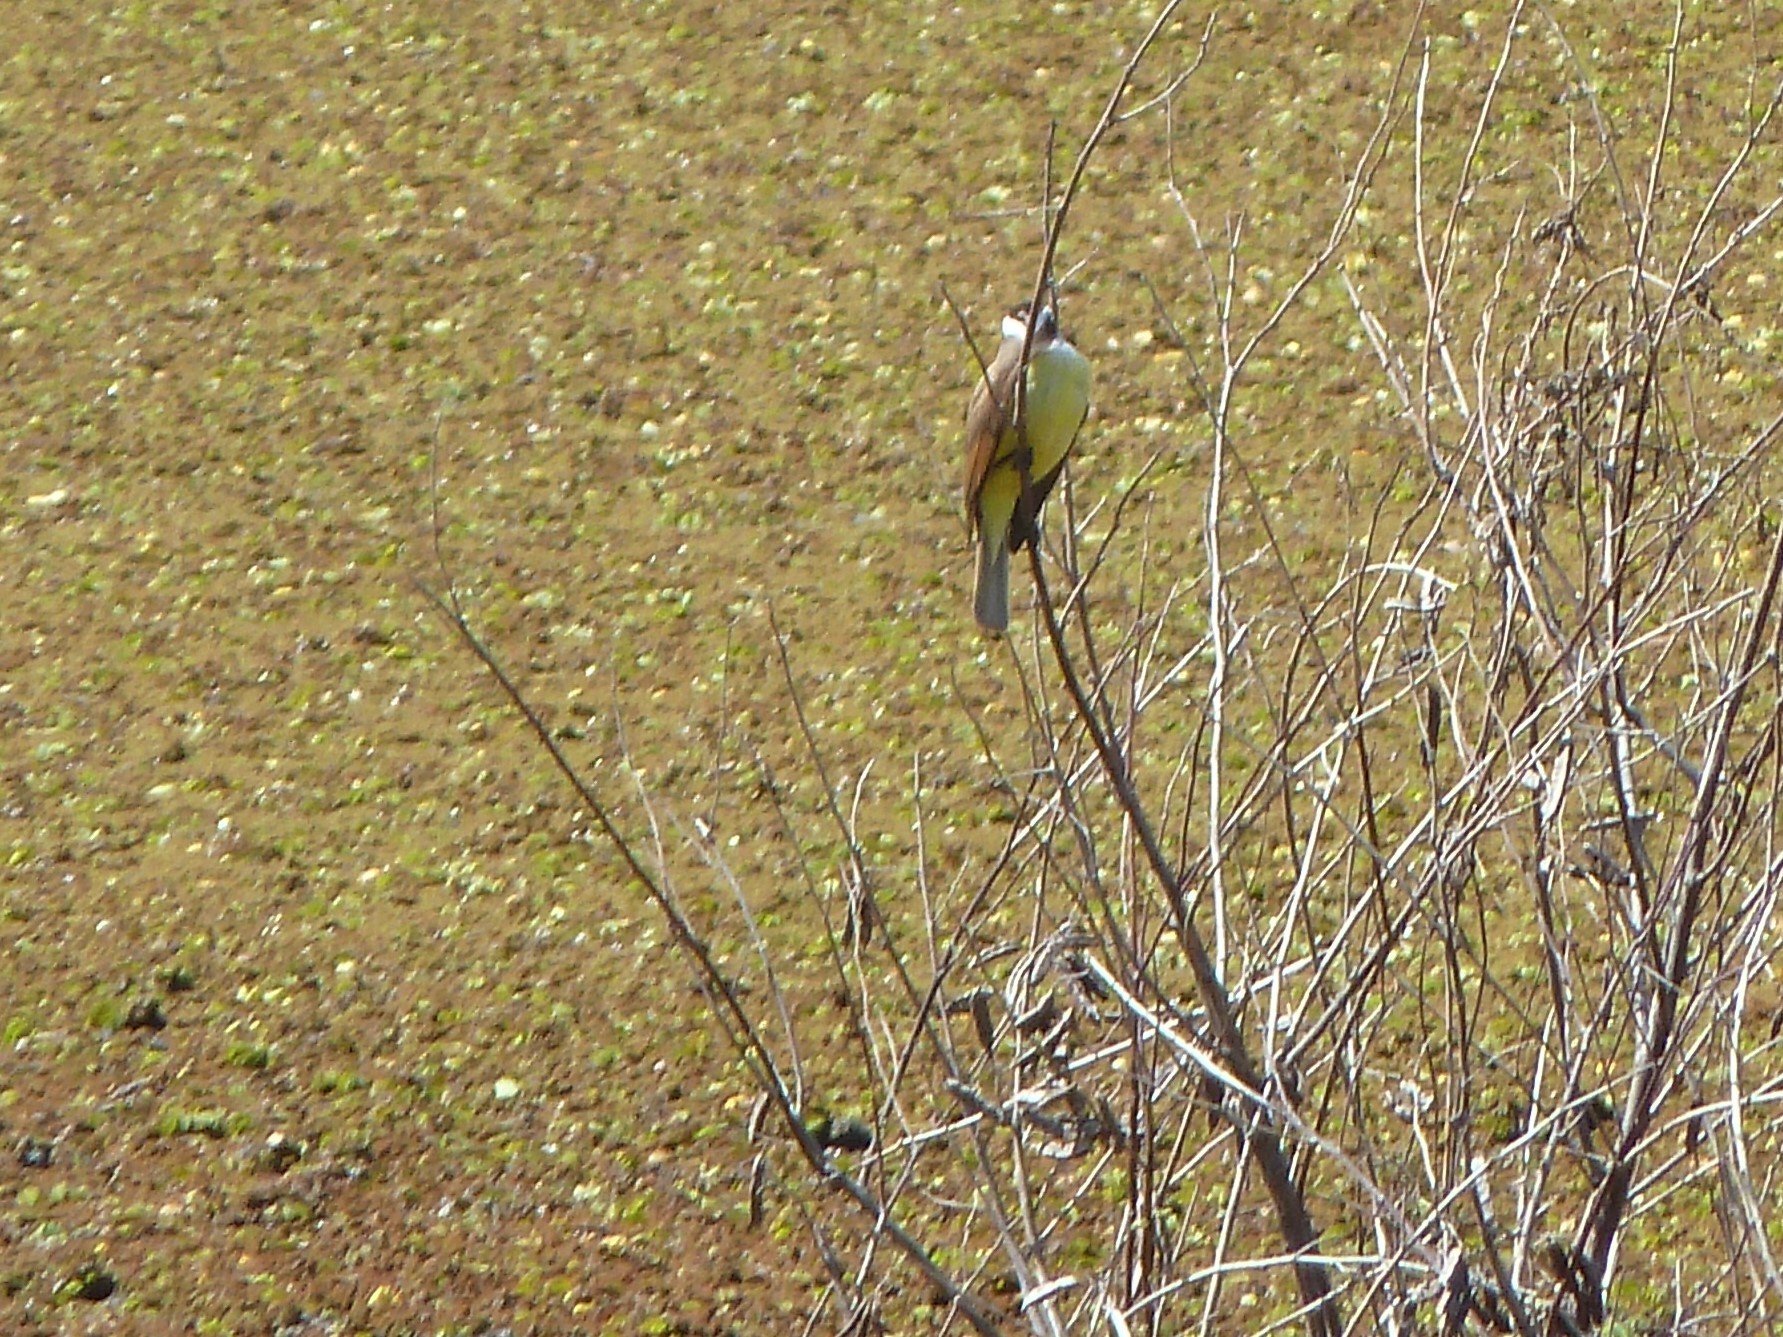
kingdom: Animalia
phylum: Chordata
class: Aves
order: Passeriformes
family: Tyrannidae
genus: Pitangus
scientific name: Pitangus sulphuratus
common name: Great kiskadee
